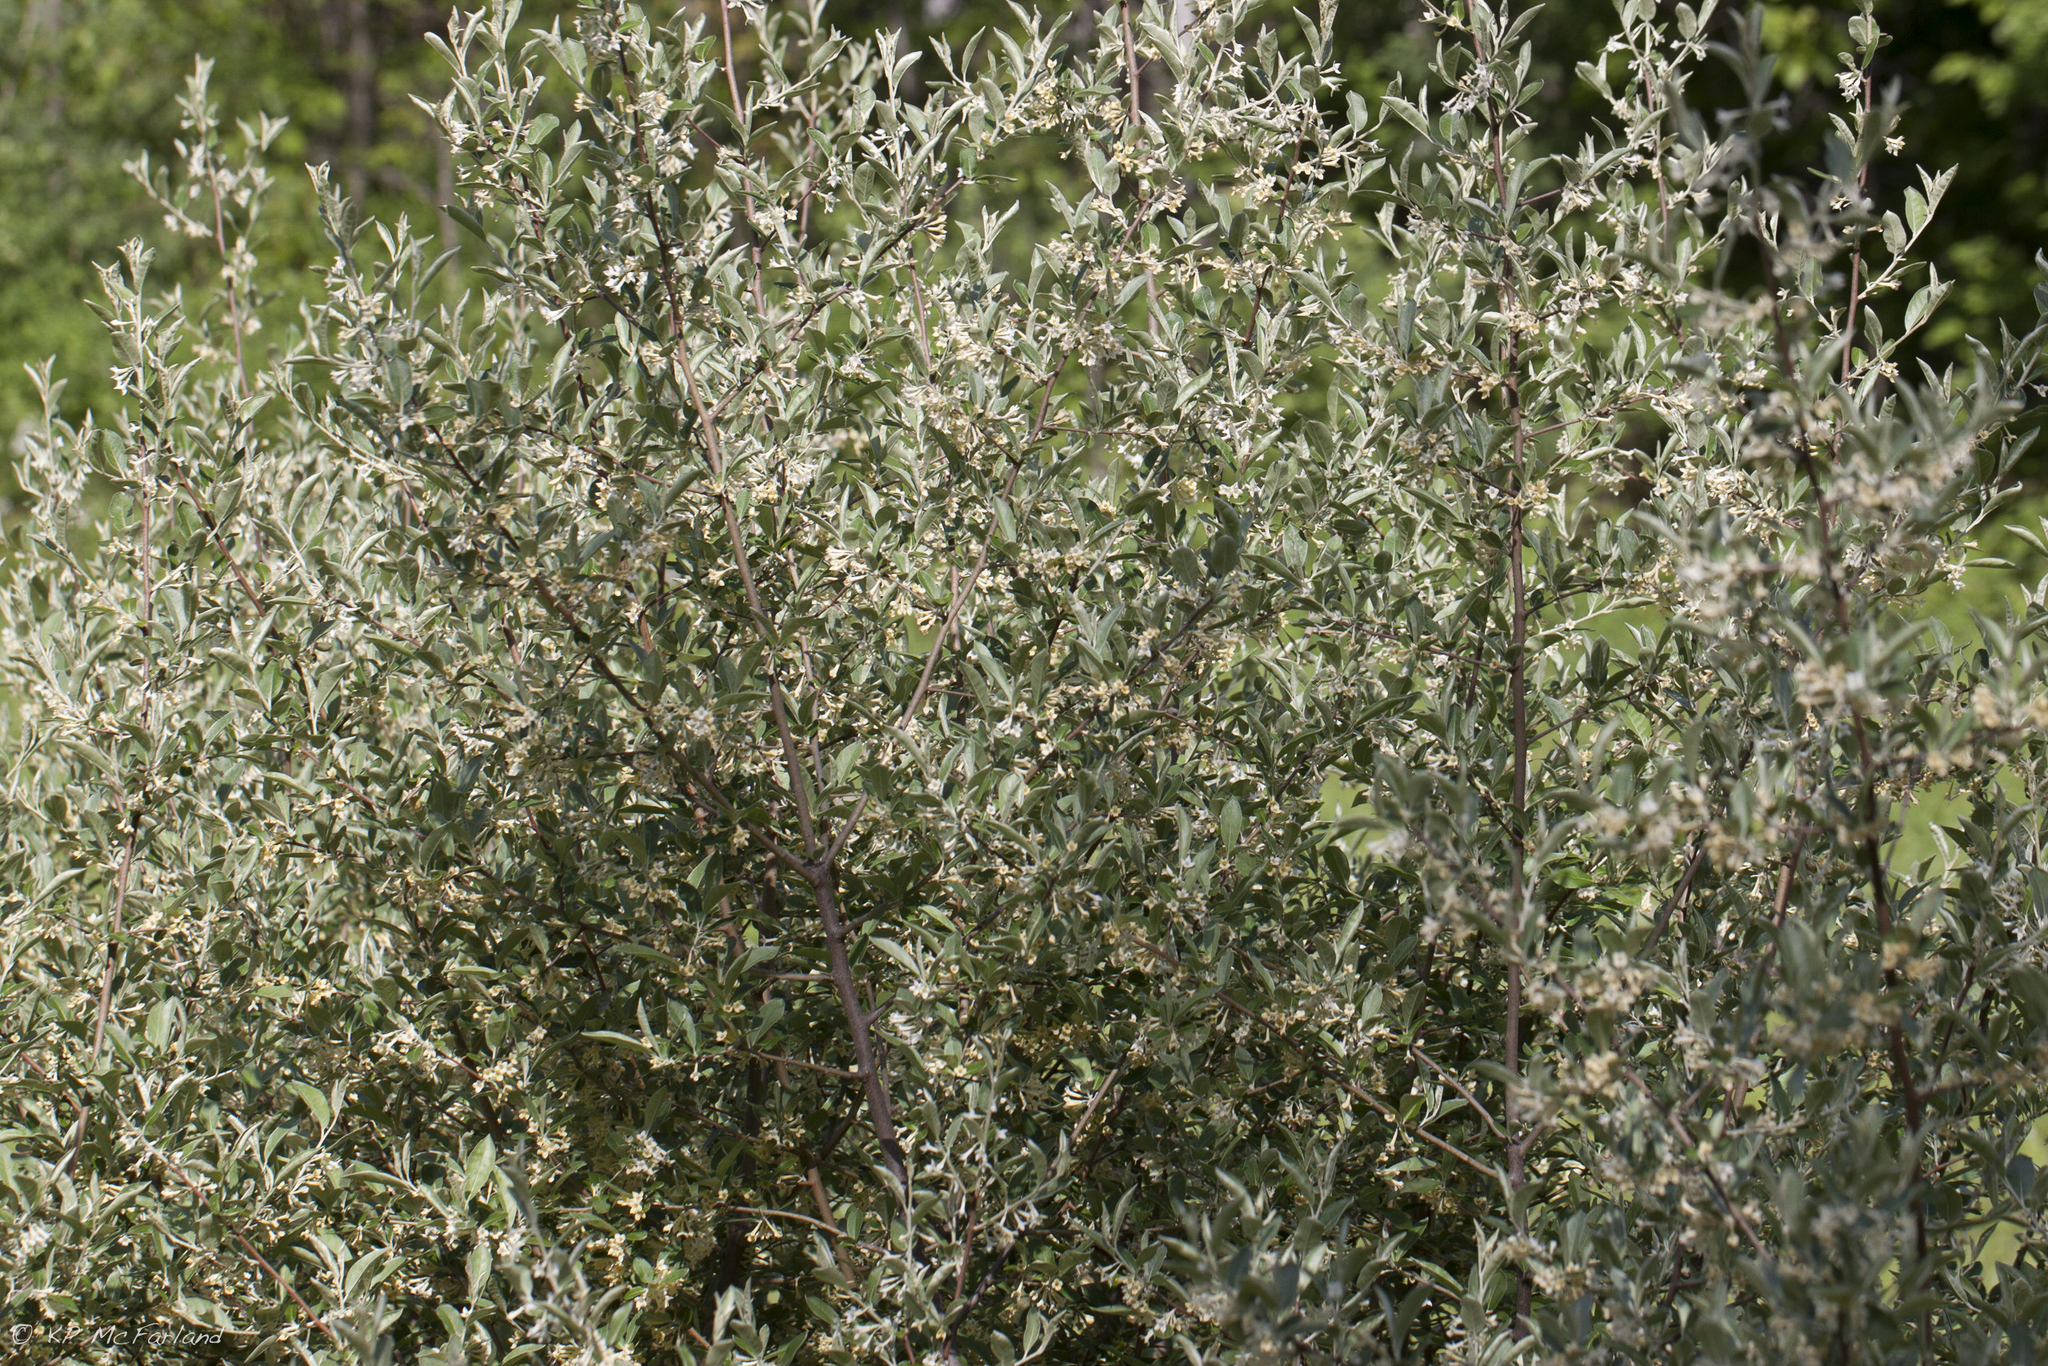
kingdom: Plantae
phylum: Tracheophyta
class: Magnoliopsida
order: Rosales
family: Elaeagnaceae
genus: Elaeagnus
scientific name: Elaeagnus umbellata
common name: Autumn olive
